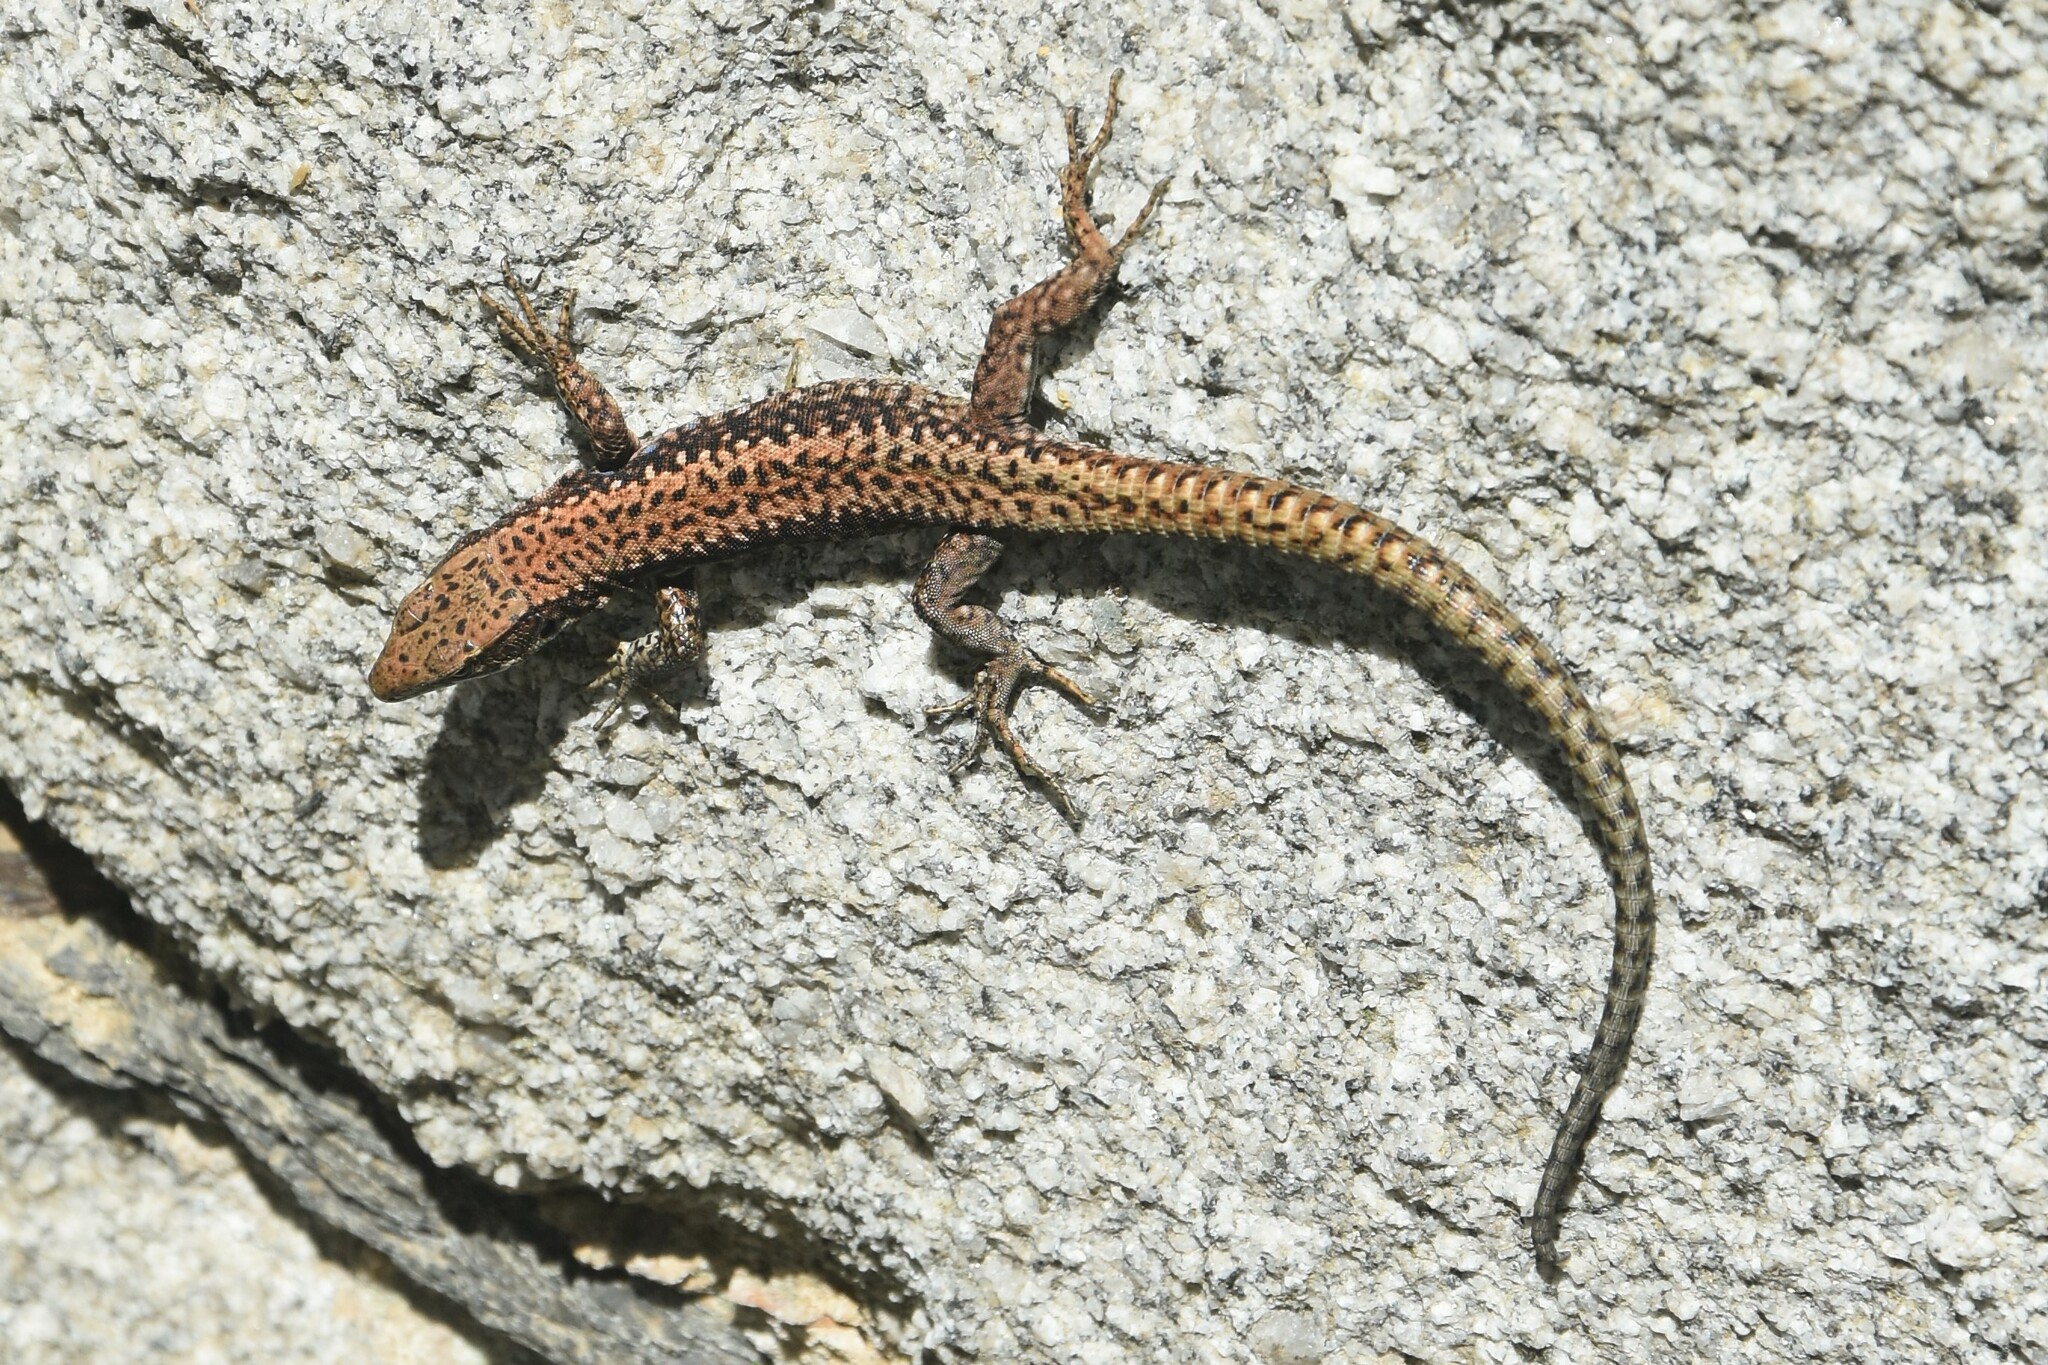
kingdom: Animalia
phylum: Chordata
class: Squamata
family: Lacertidae
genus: Iberolacerta
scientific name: Iberolacerta monticola
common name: Iberian mountain lizard
